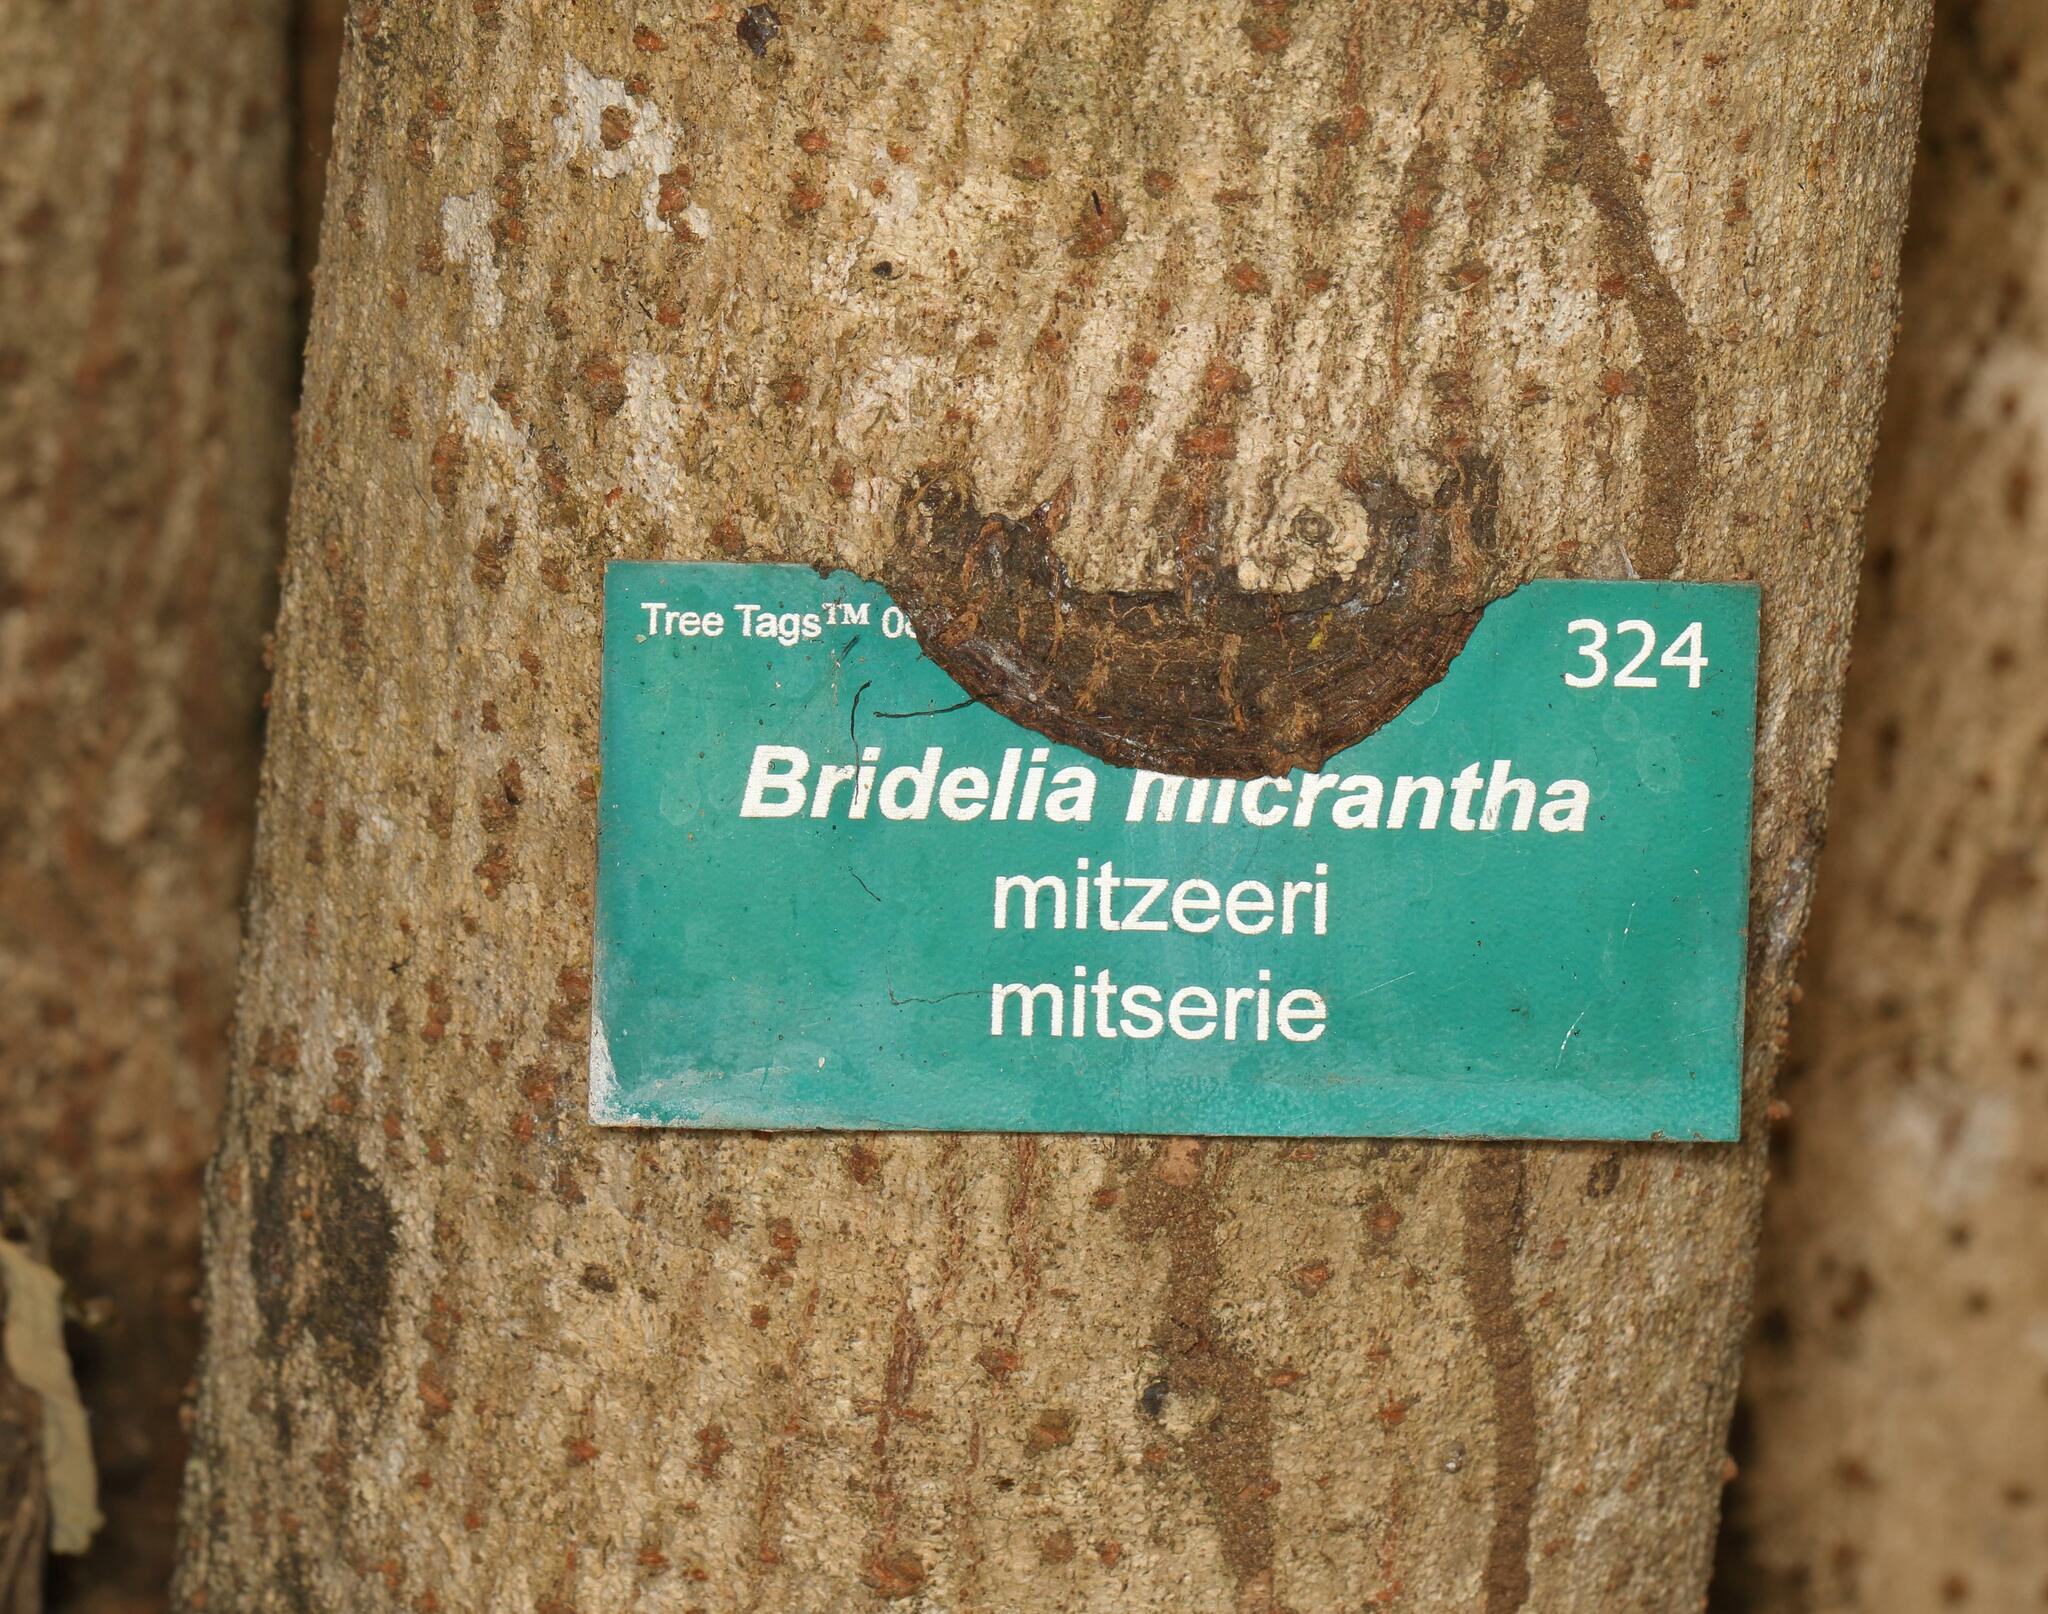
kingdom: Plantae
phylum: Tracheophyta
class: Magnoliopsida
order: Malpighiales
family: Phyllanthaceae
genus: Bridelia
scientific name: Bridelia micrantha
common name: Bridelia
